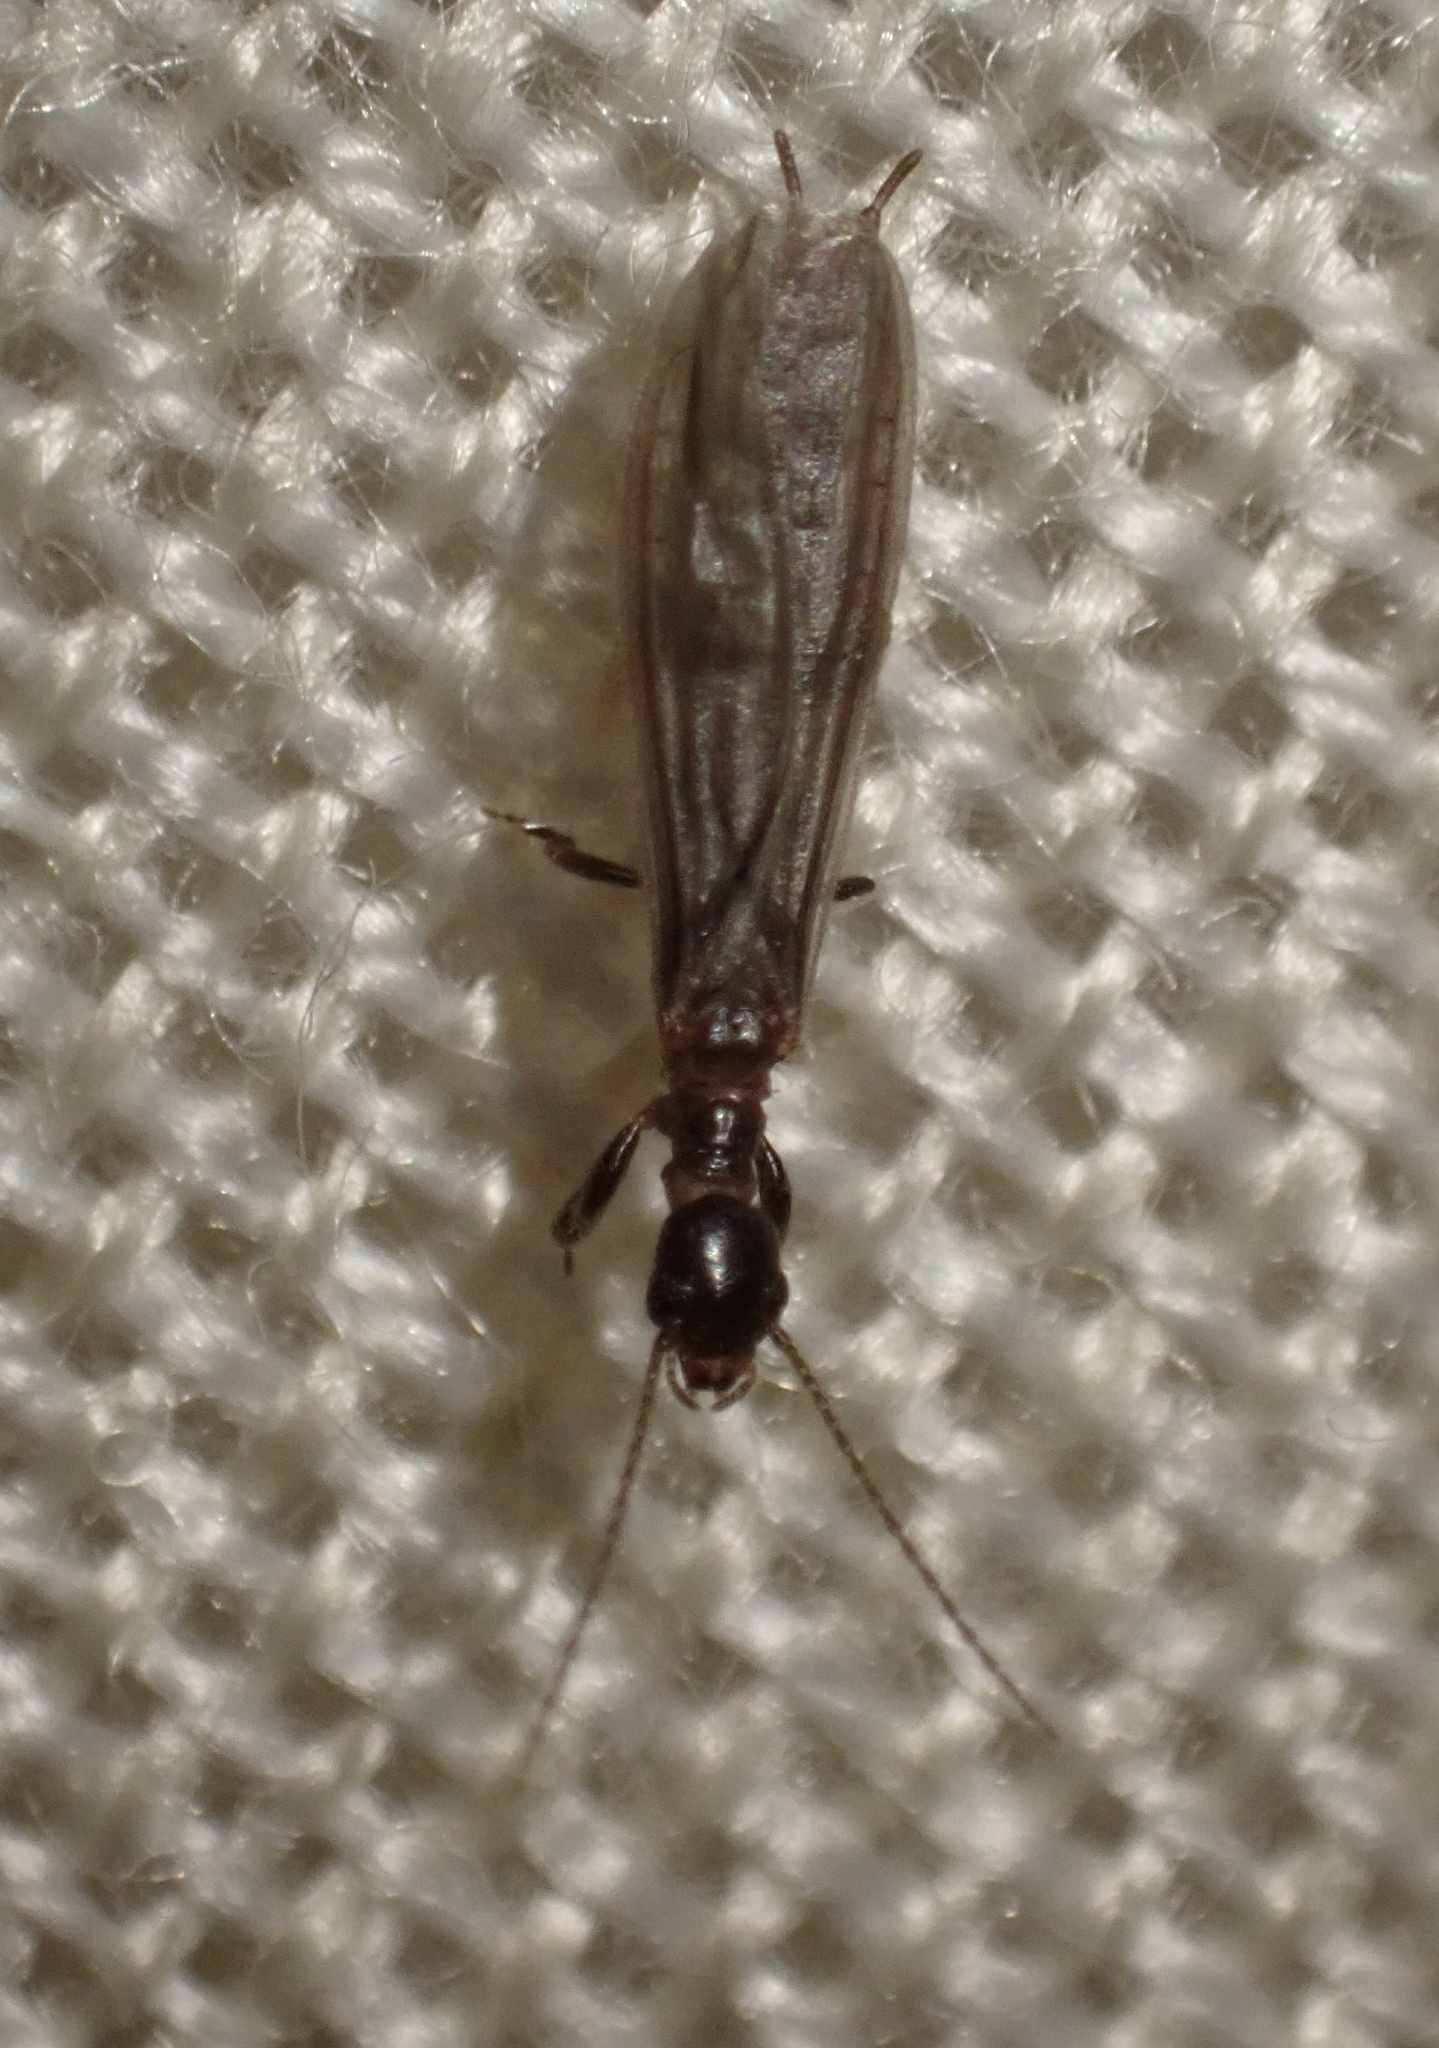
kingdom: Animalia
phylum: Arthropoda
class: Insecta
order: Embioptera
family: Oligotomidae
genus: Oligotoma
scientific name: Oligotoma nigra
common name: Black webspinner
